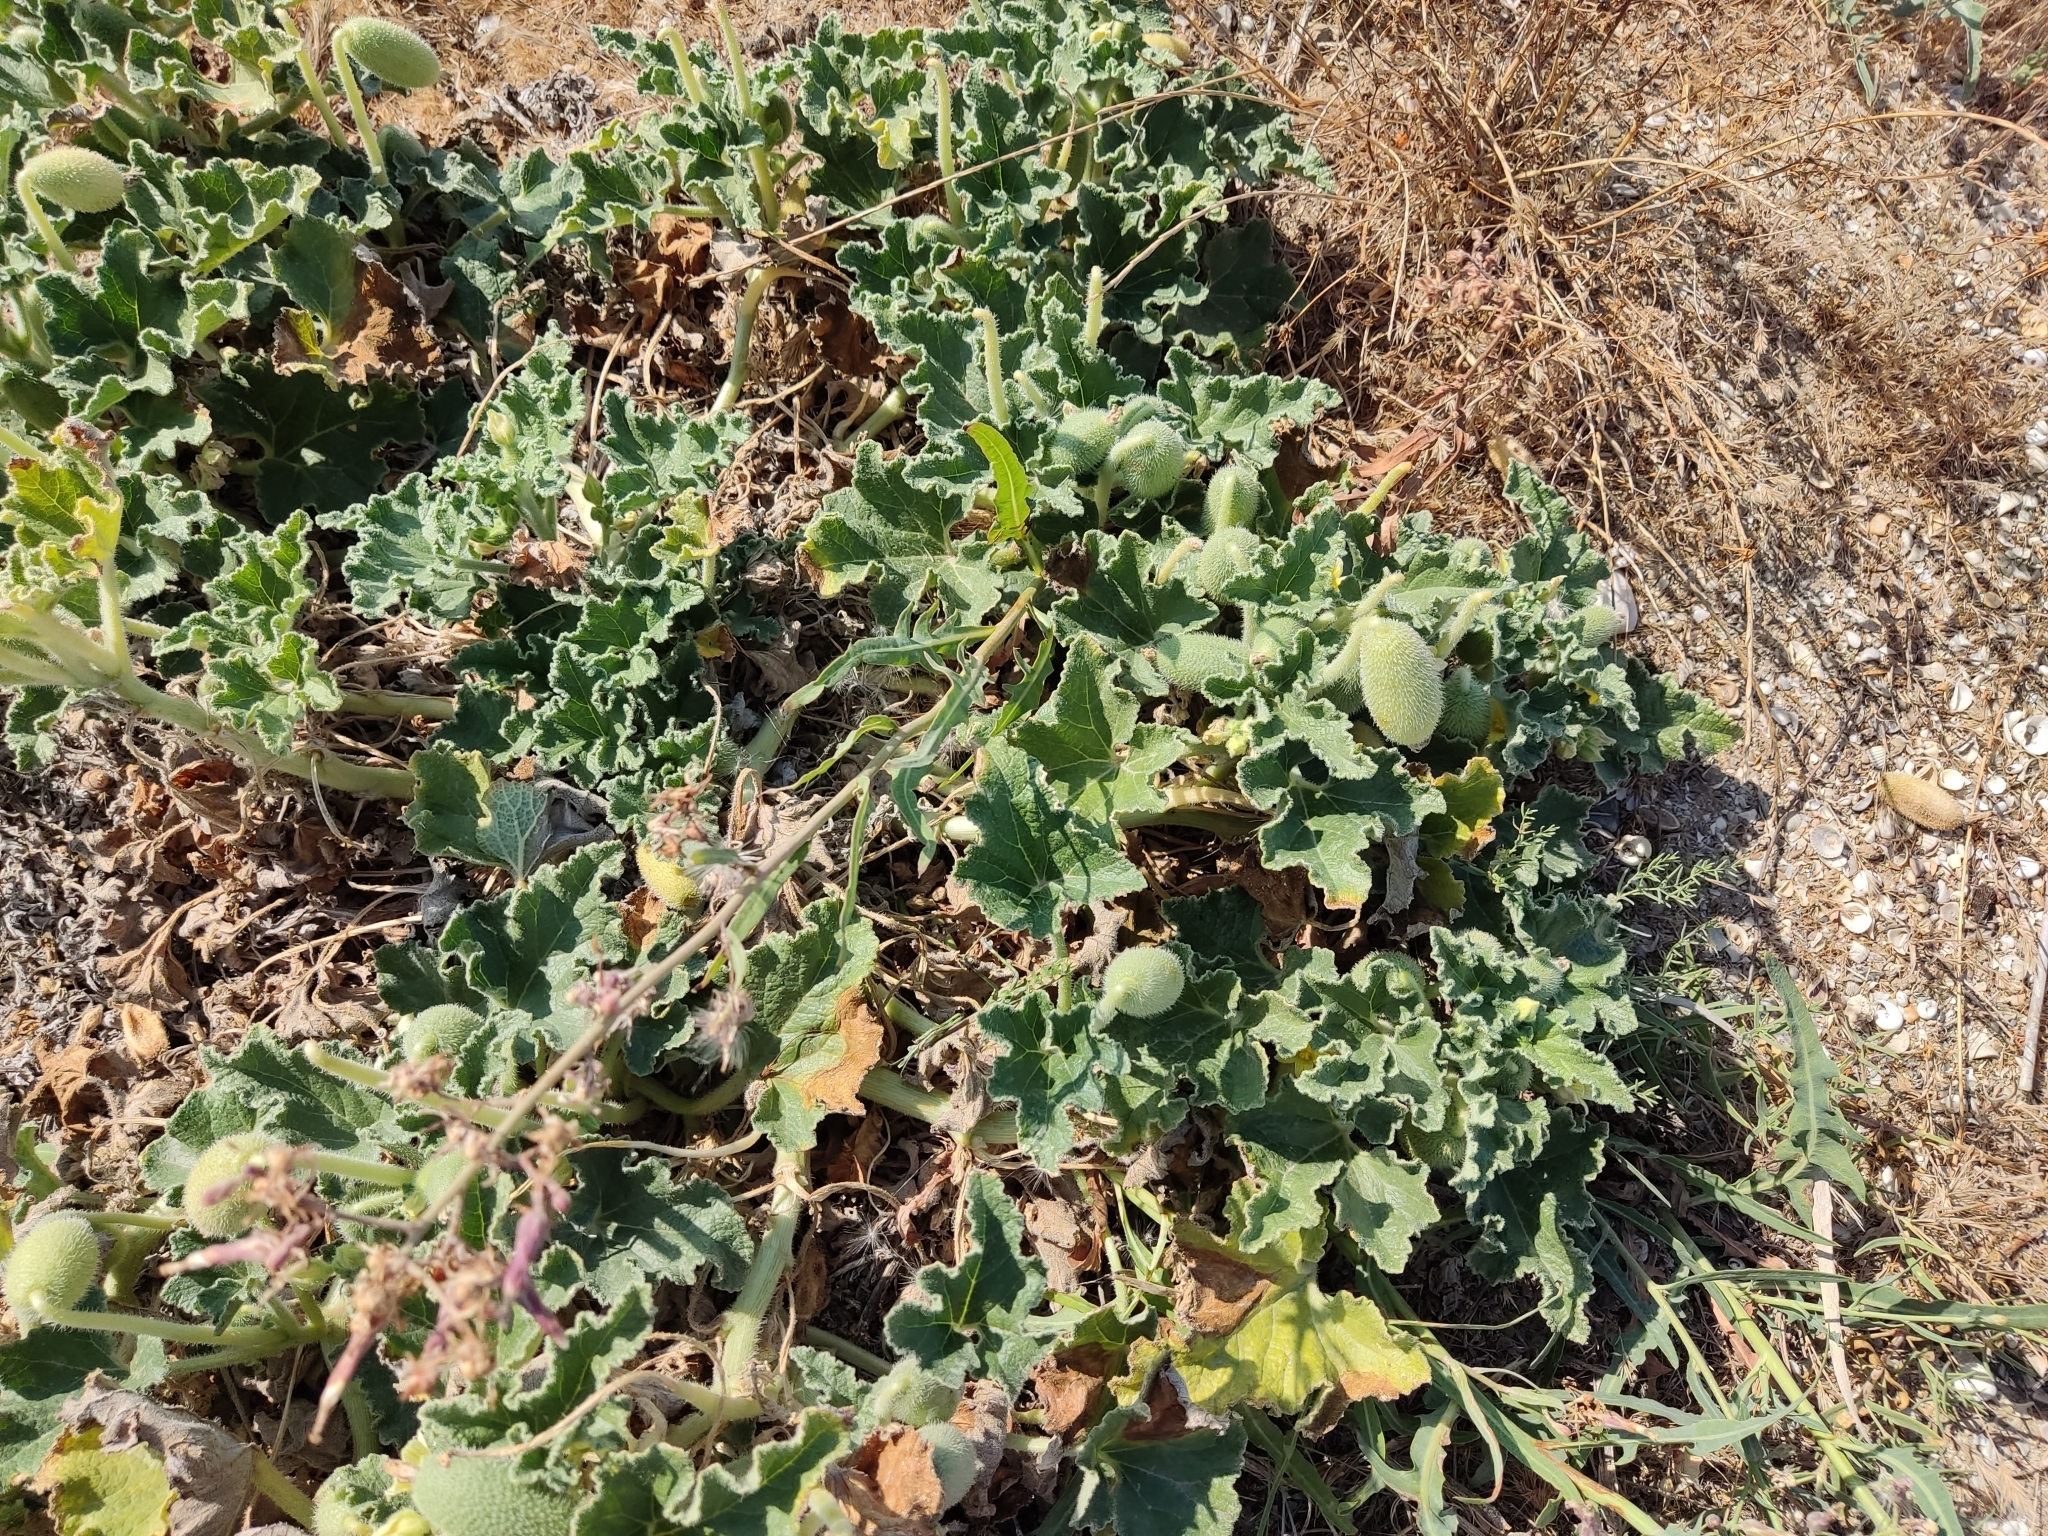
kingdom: Plantae
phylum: Tracheophyta
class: Magnoliopsida
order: Cucurbitales
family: Cucurbitaceae
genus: Ecballium
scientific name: Ecballium elaterium
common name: Squirting cucumber
